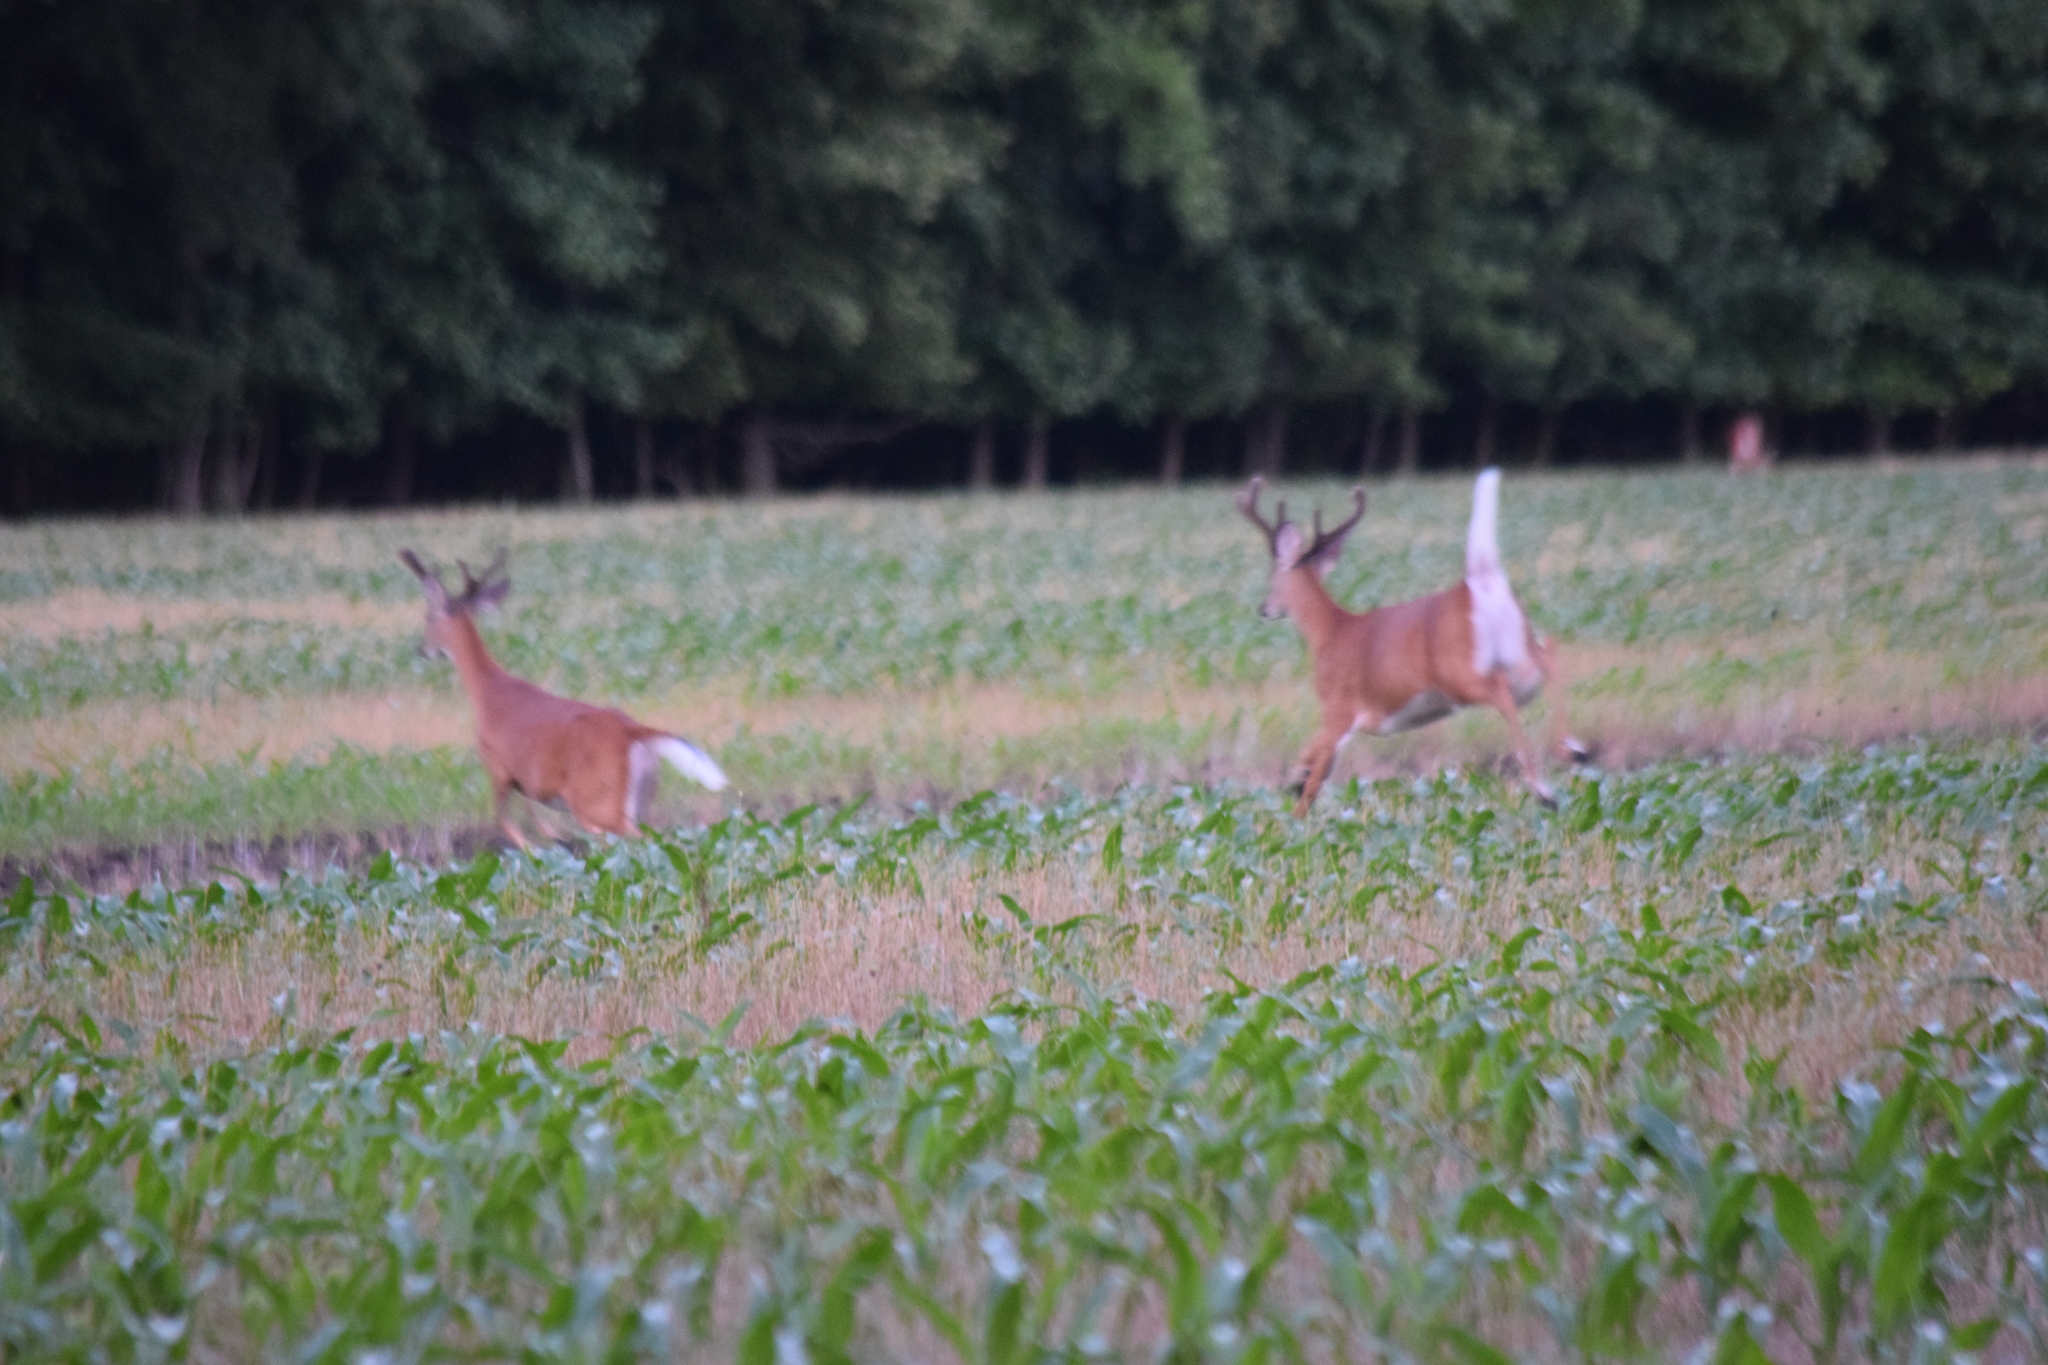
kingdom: Animalia
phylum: Chordata
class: Mammalia
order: Artiodactyla
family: Cervidae
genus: Odocoileus
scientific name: Odocoileus virginianus
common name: White-tailed deer
